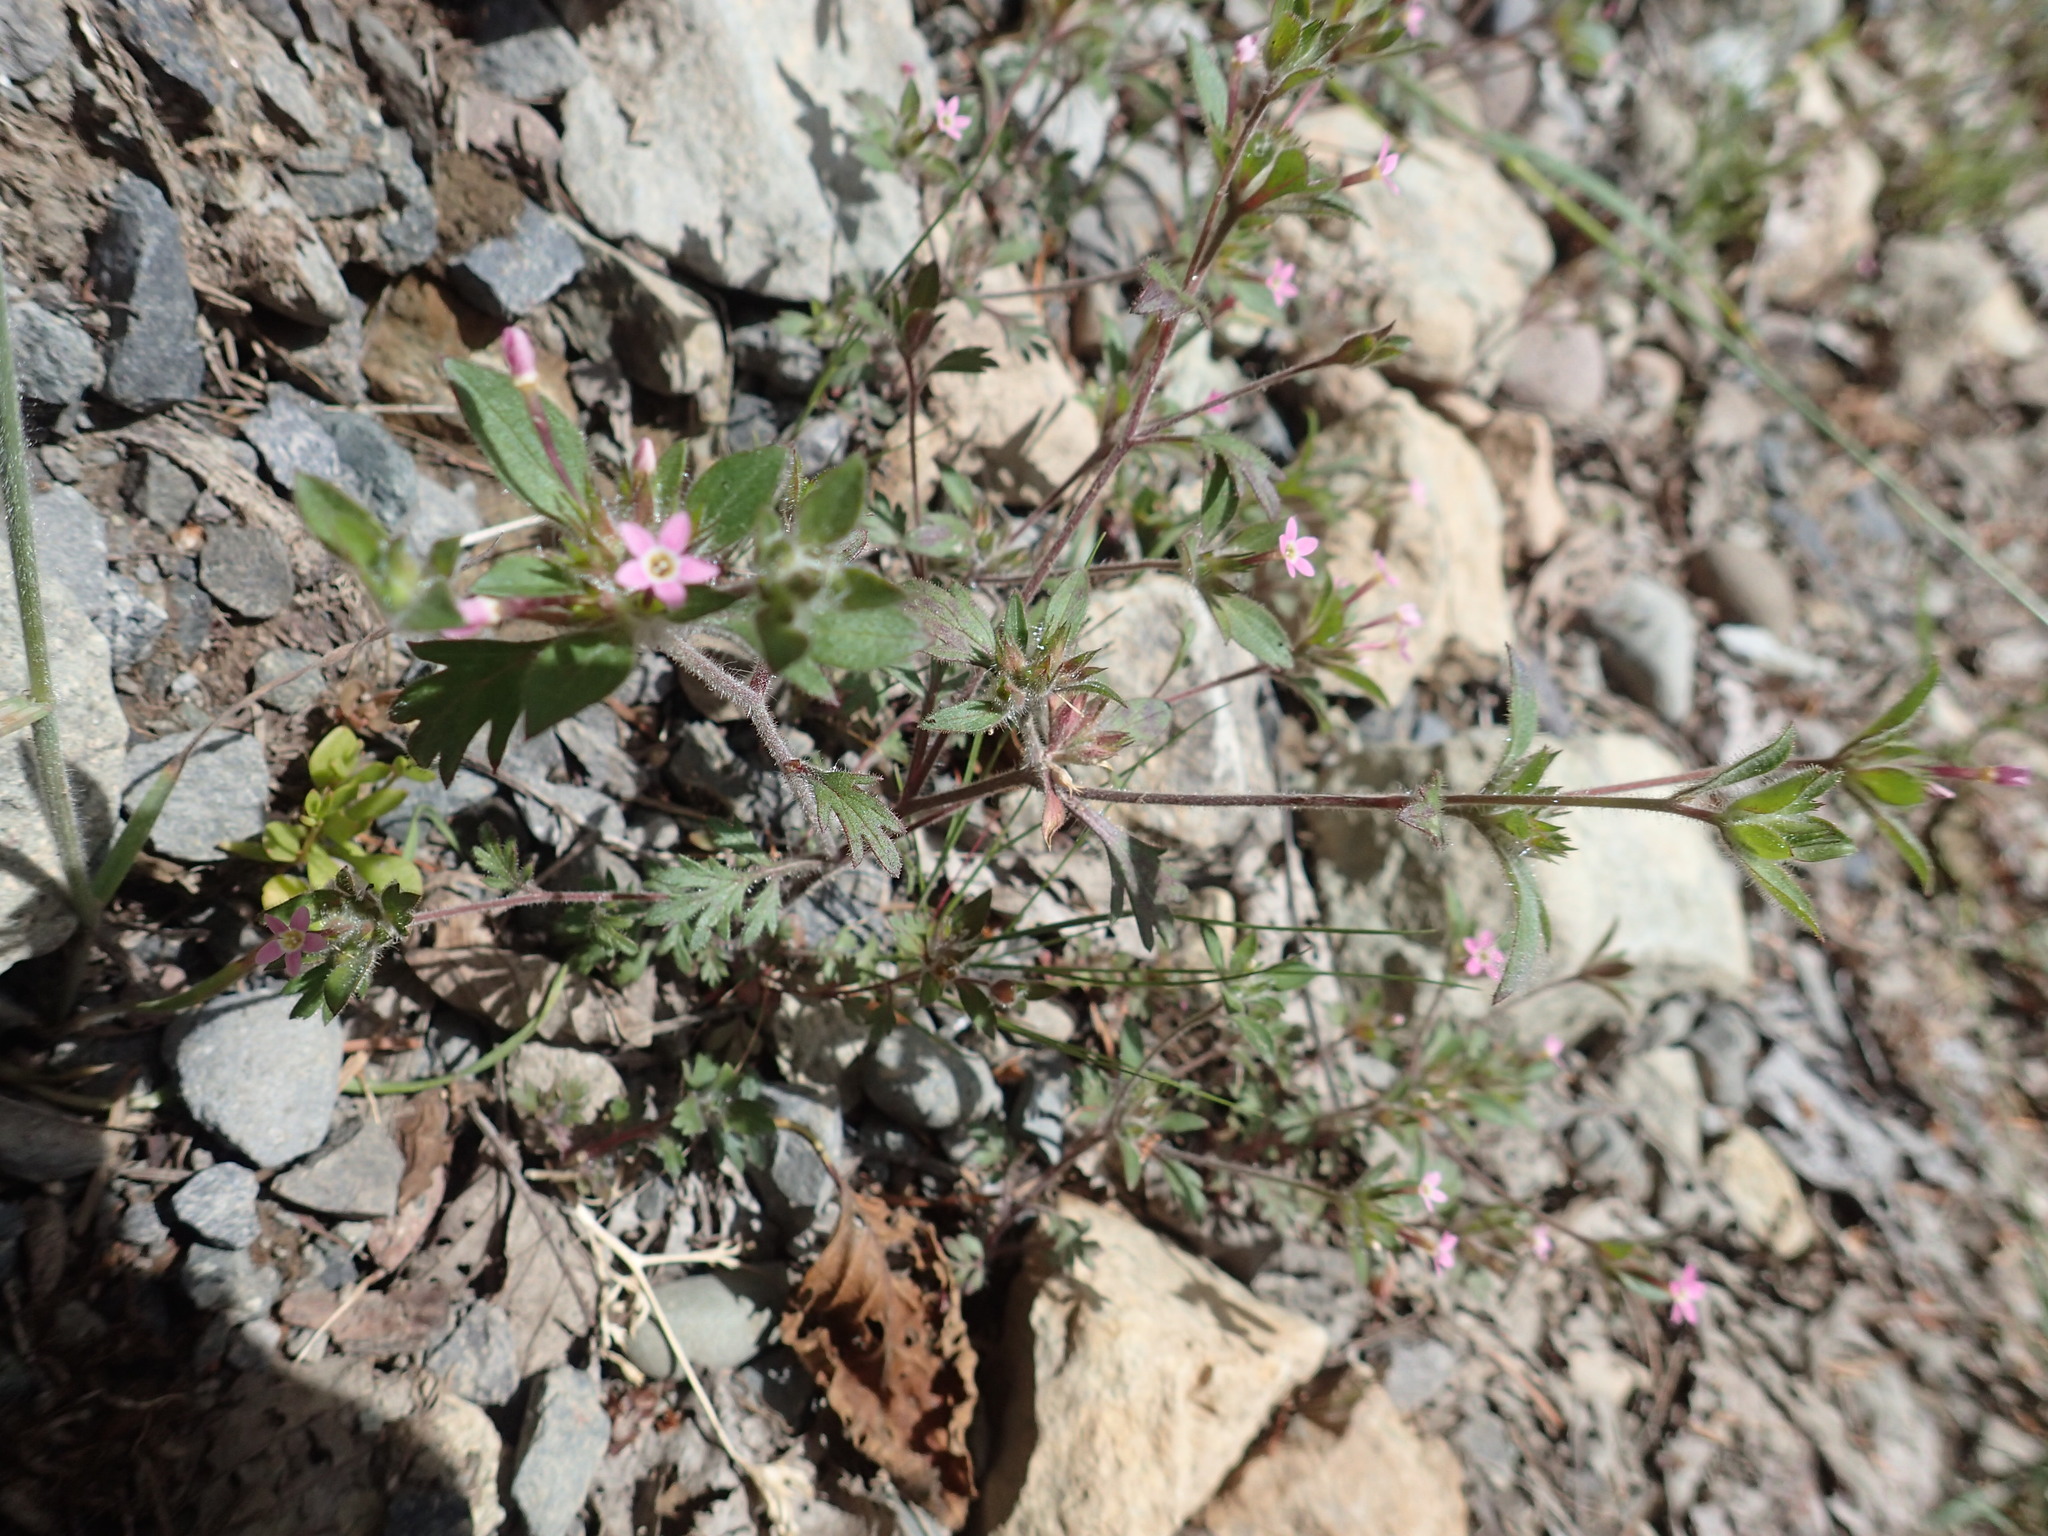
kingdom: Plantae
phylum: Tracheophyta
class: Magnoliopsida
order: Ericales
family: Polemoniaceae
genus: Collomia
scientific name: Collomia heterophylla
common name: Variable-leaved collomia
